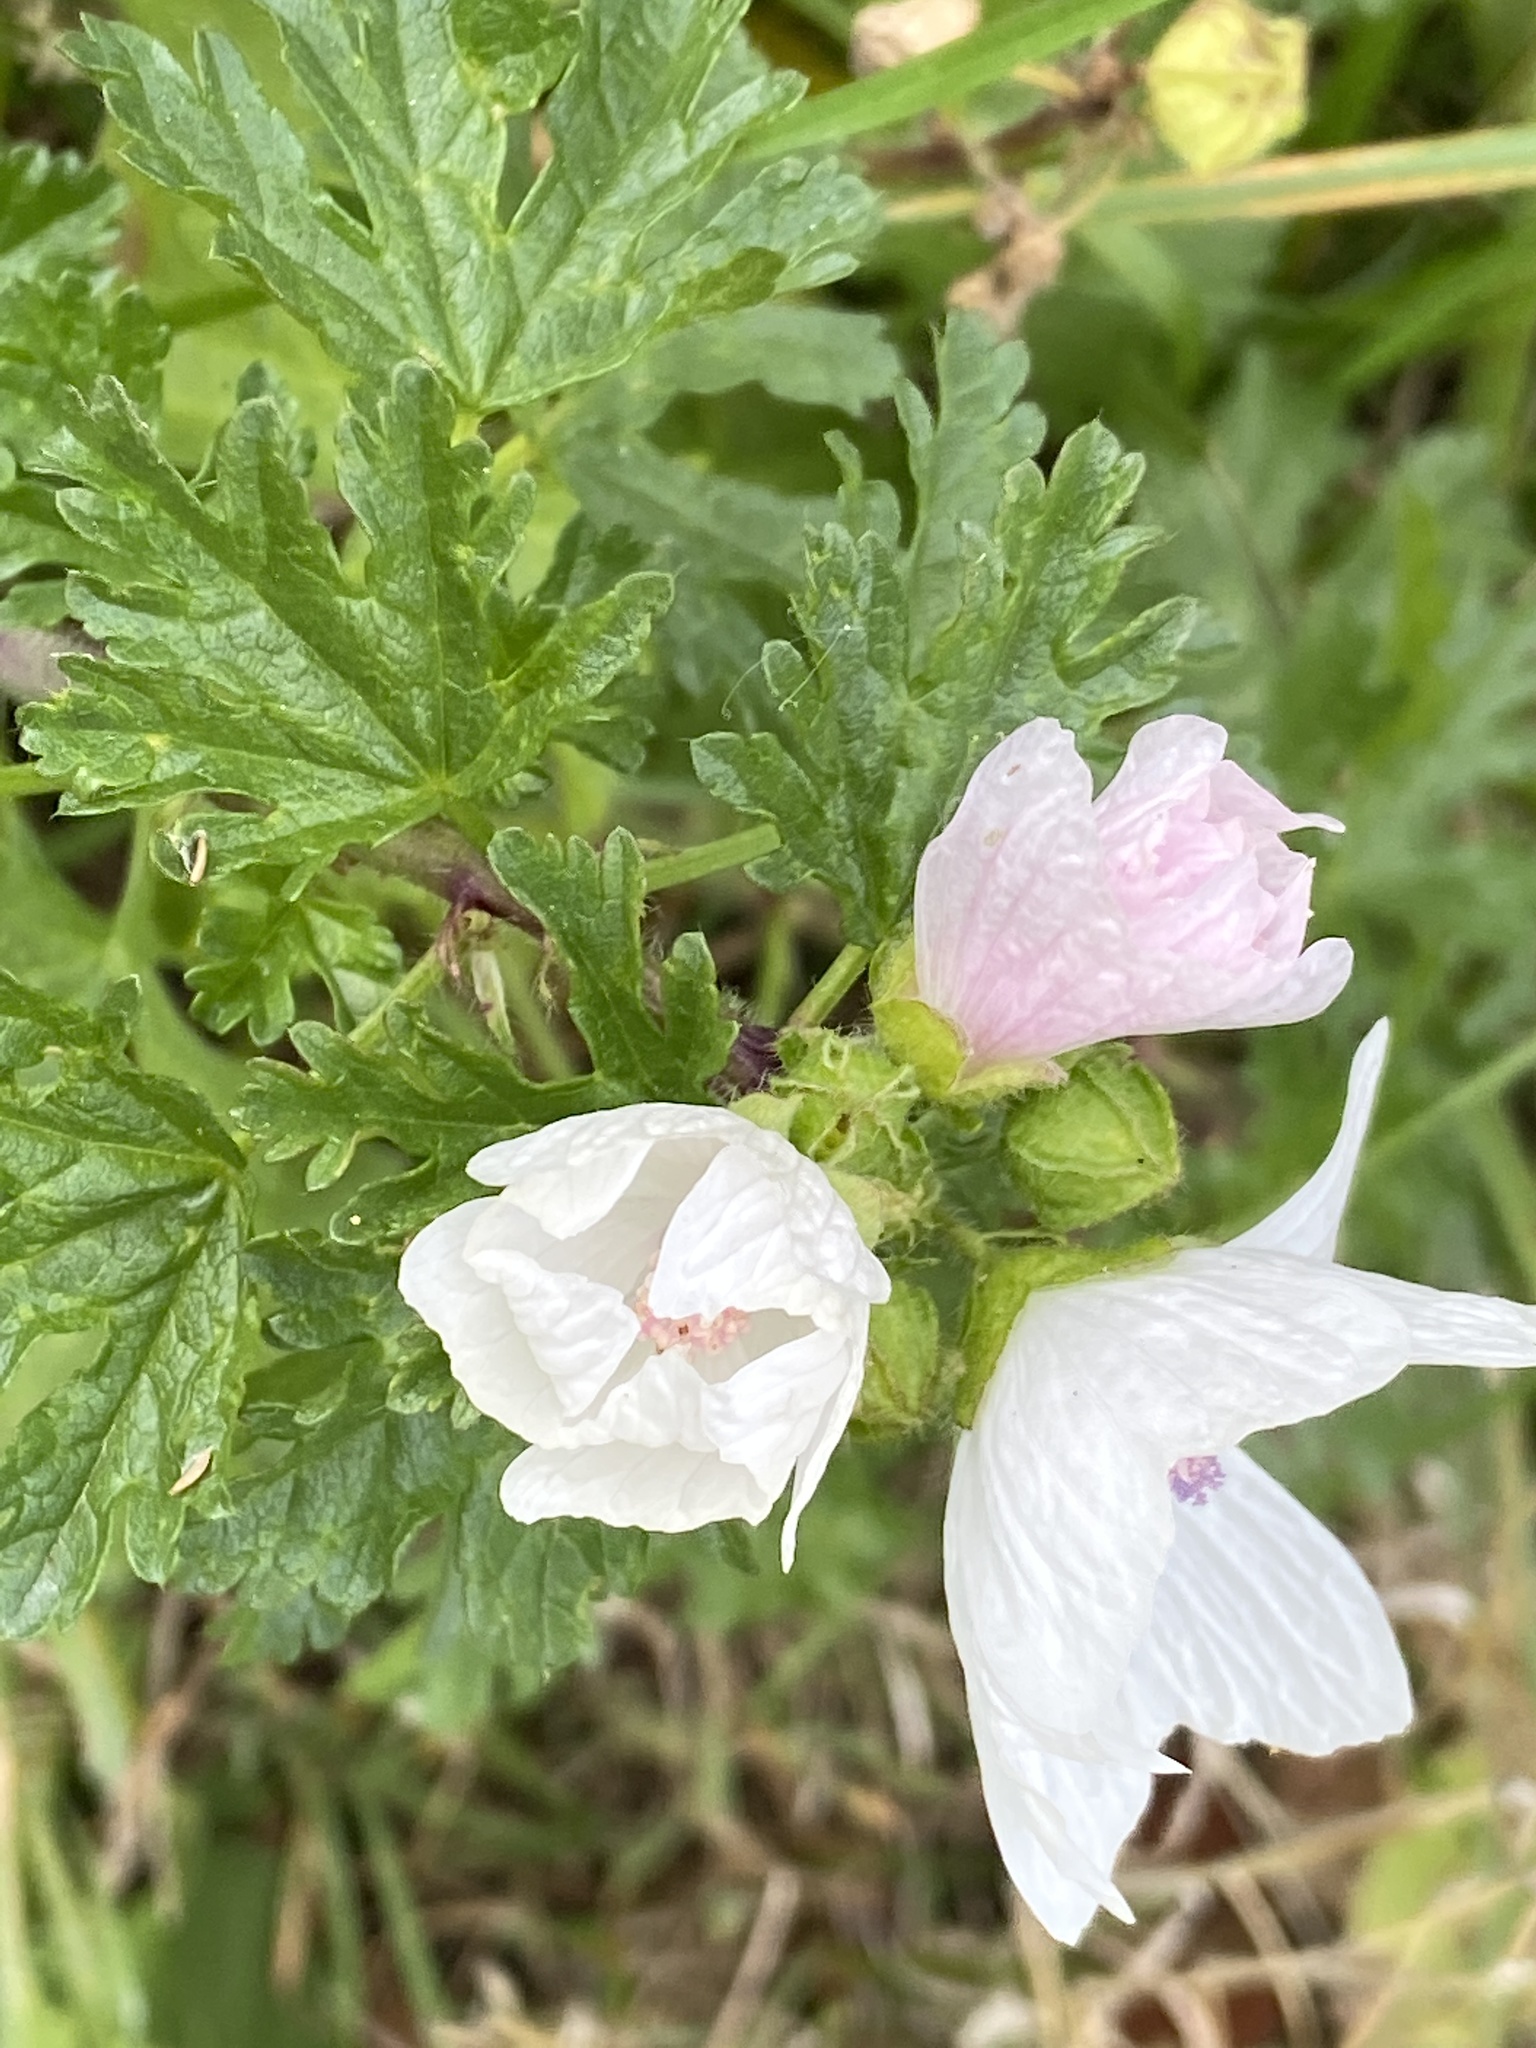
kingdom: Plantae
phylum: Tracheophyta
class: Magnoliopsida
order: Malvales
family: Malvaceae
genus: Malva
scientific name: Malva moschata
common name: Musk mallow
